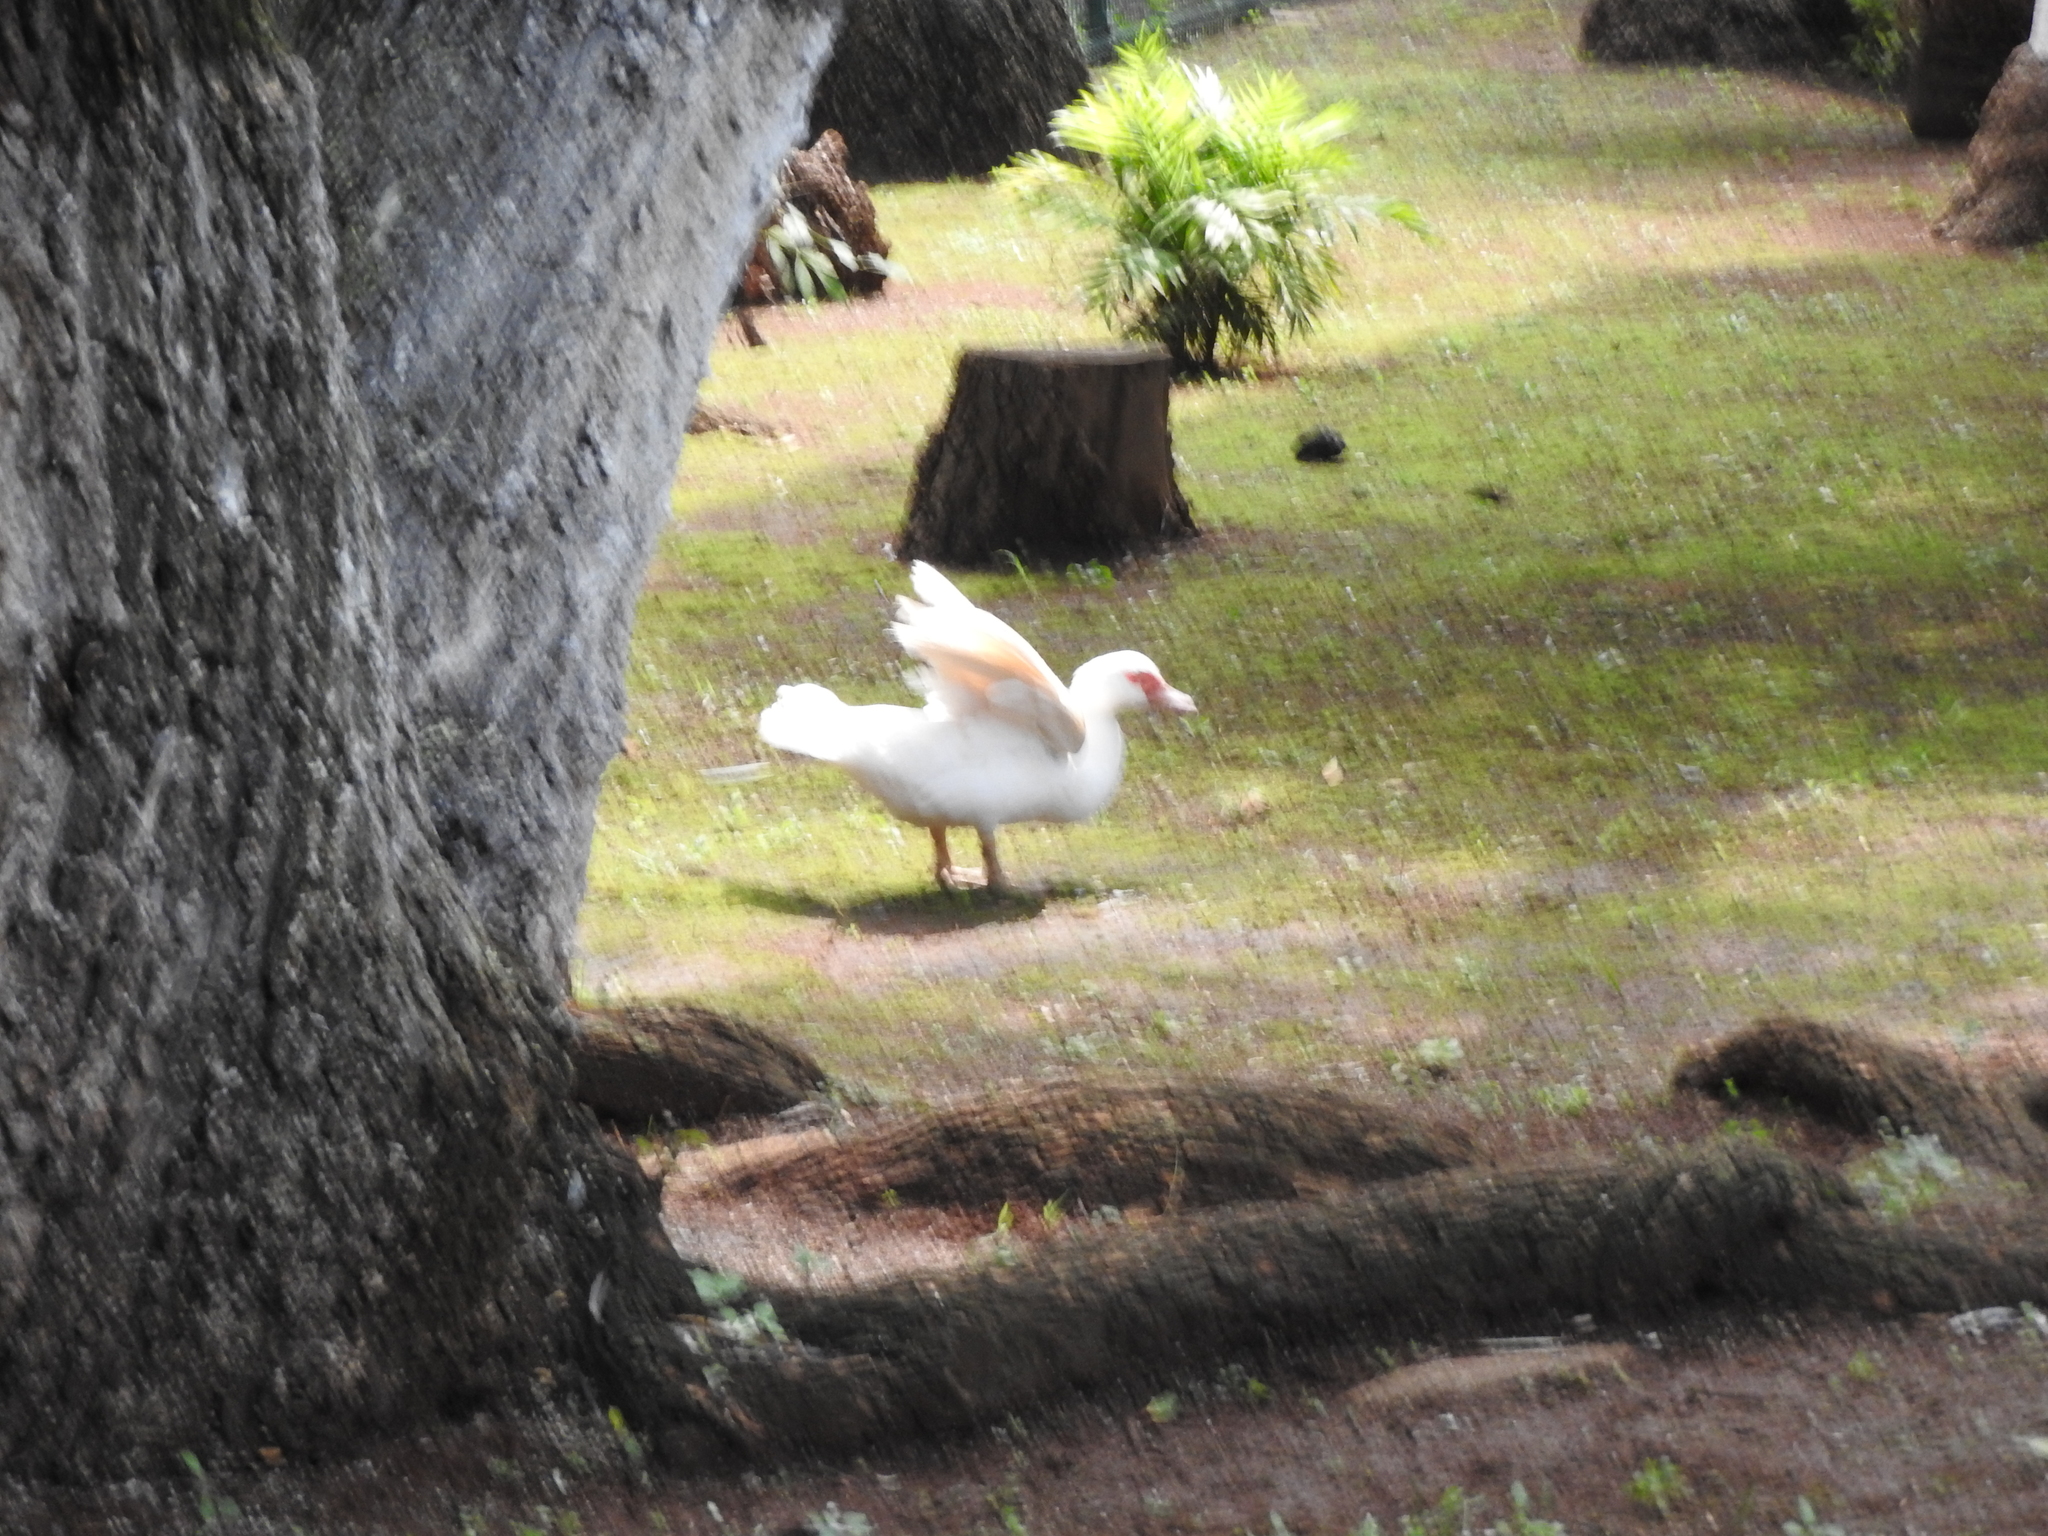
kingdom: Animalia
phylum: Chordata
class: Aves
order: Anseriformes
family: Anatidae
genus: Cairina
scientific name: Cairina moschata
